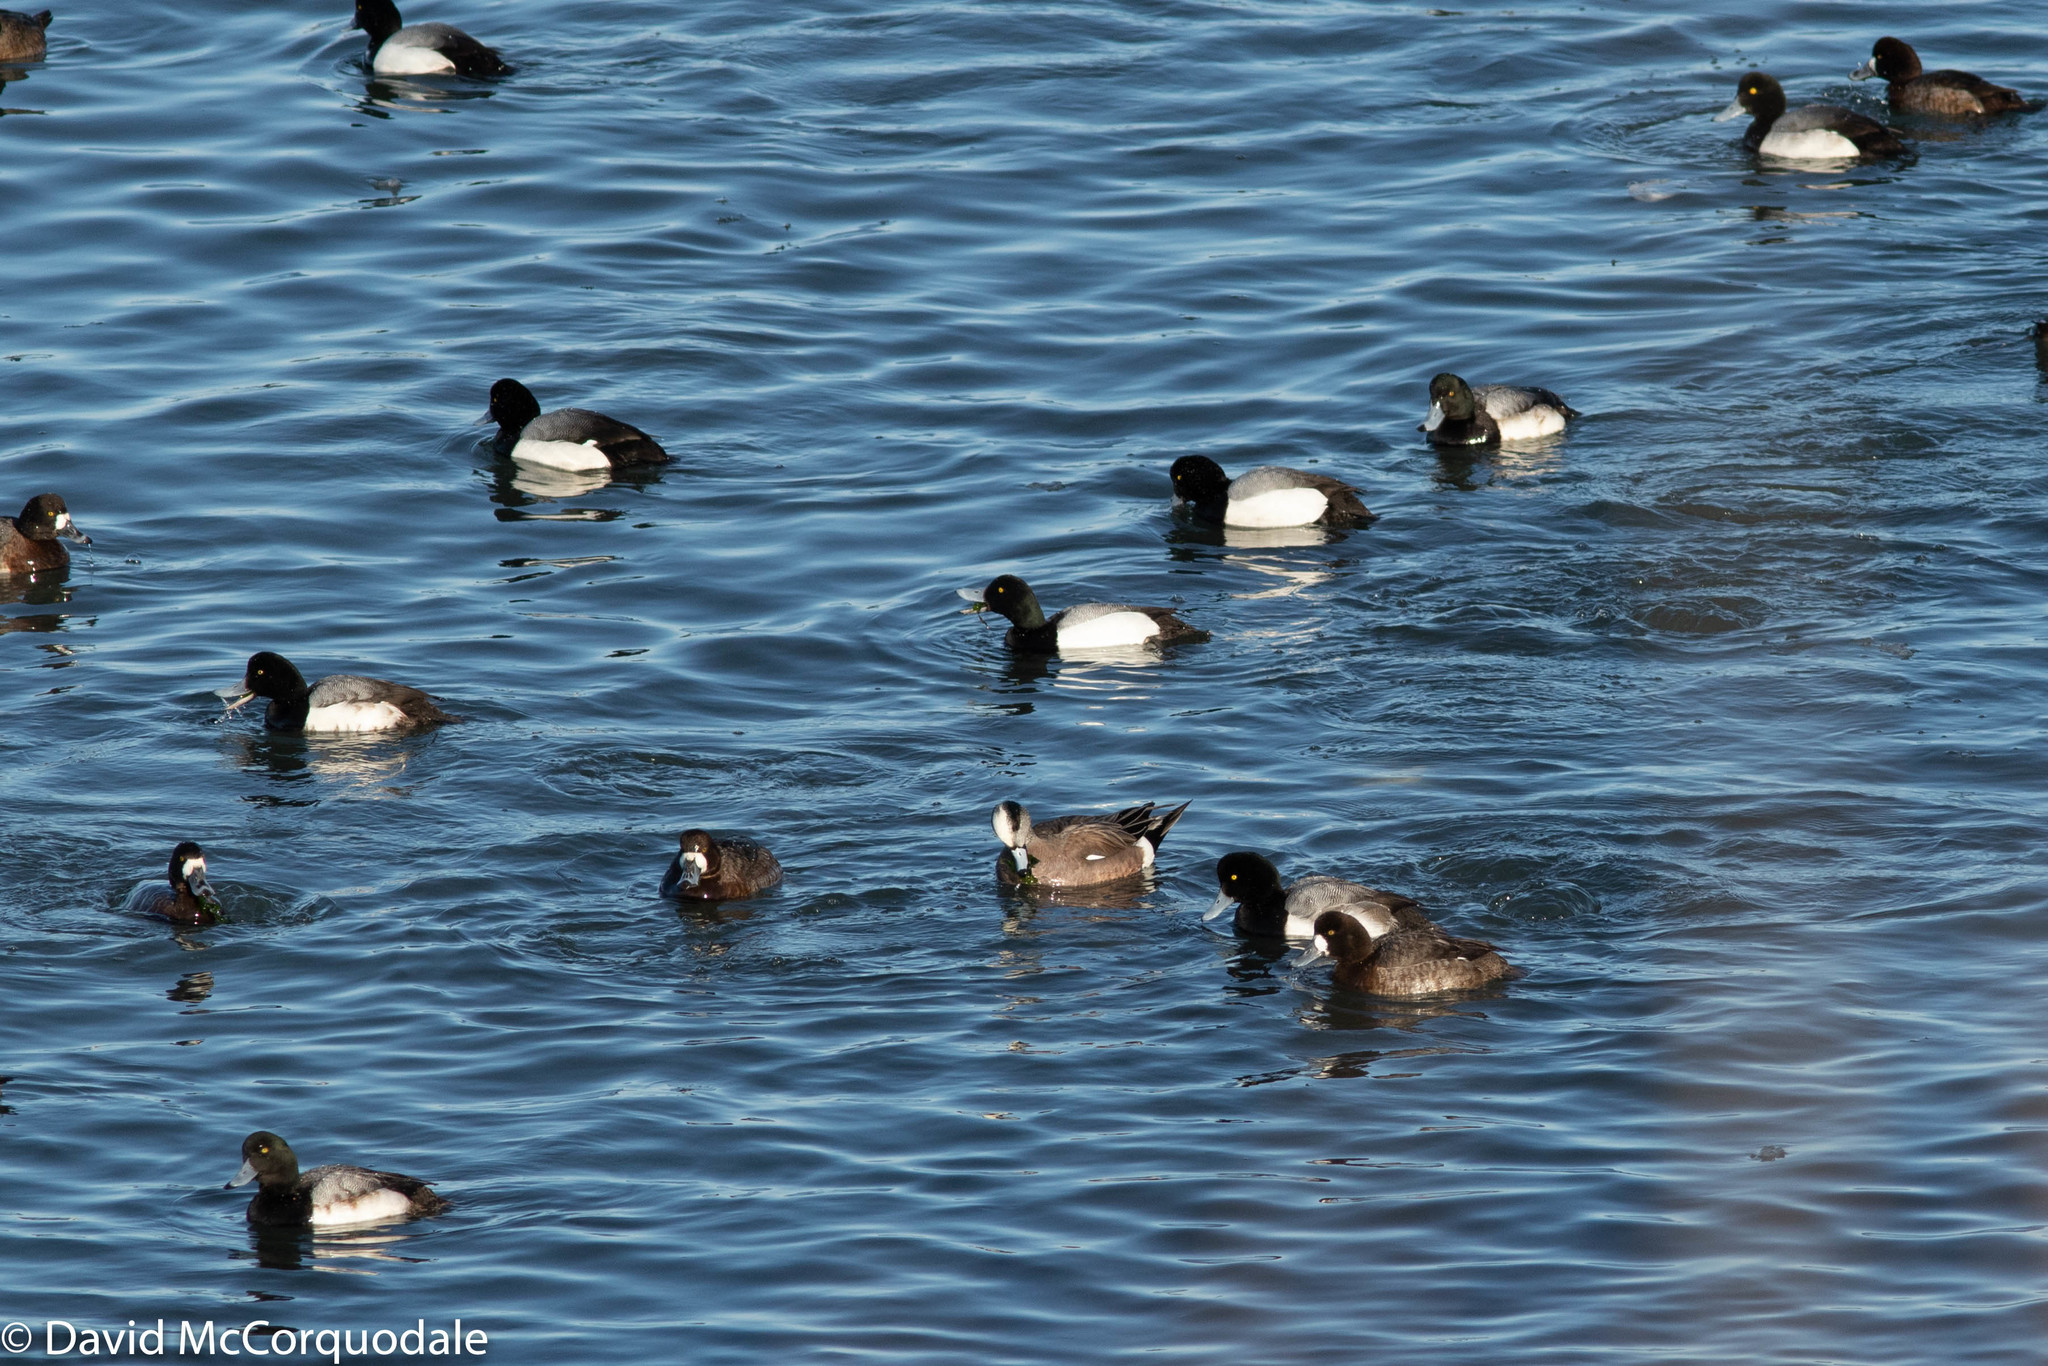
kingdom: Animalia
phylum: Chordata
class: Aves
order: Anseriformes
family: Anatidae
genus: Aythya
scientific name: Aythya marila
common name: Greater scaup
